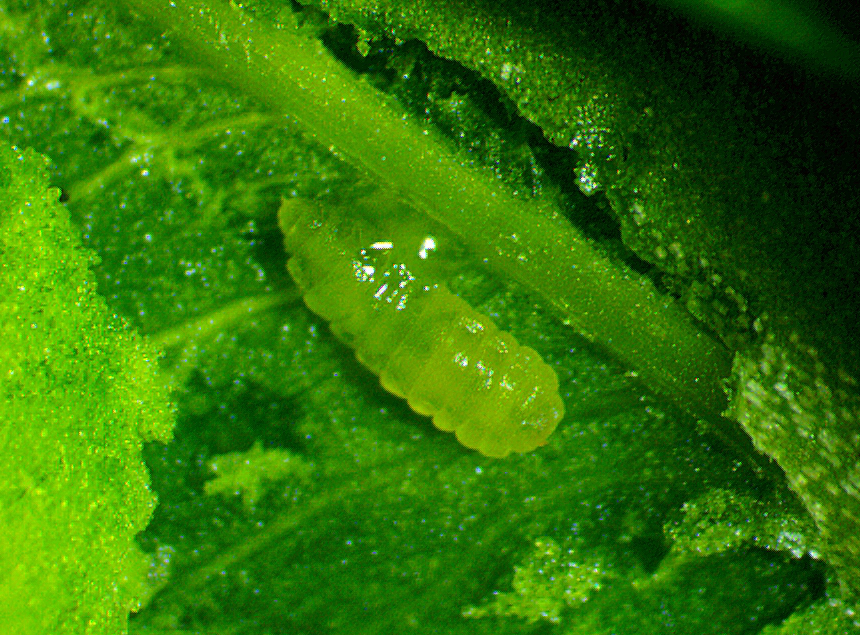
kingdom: Animalia
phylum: Arthropoda
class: Insecta
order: Diptera
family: Cecidomyiidae
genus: Monarthropalpus
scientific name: Monarthropalpus flavus
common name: Boxwood leafminer
